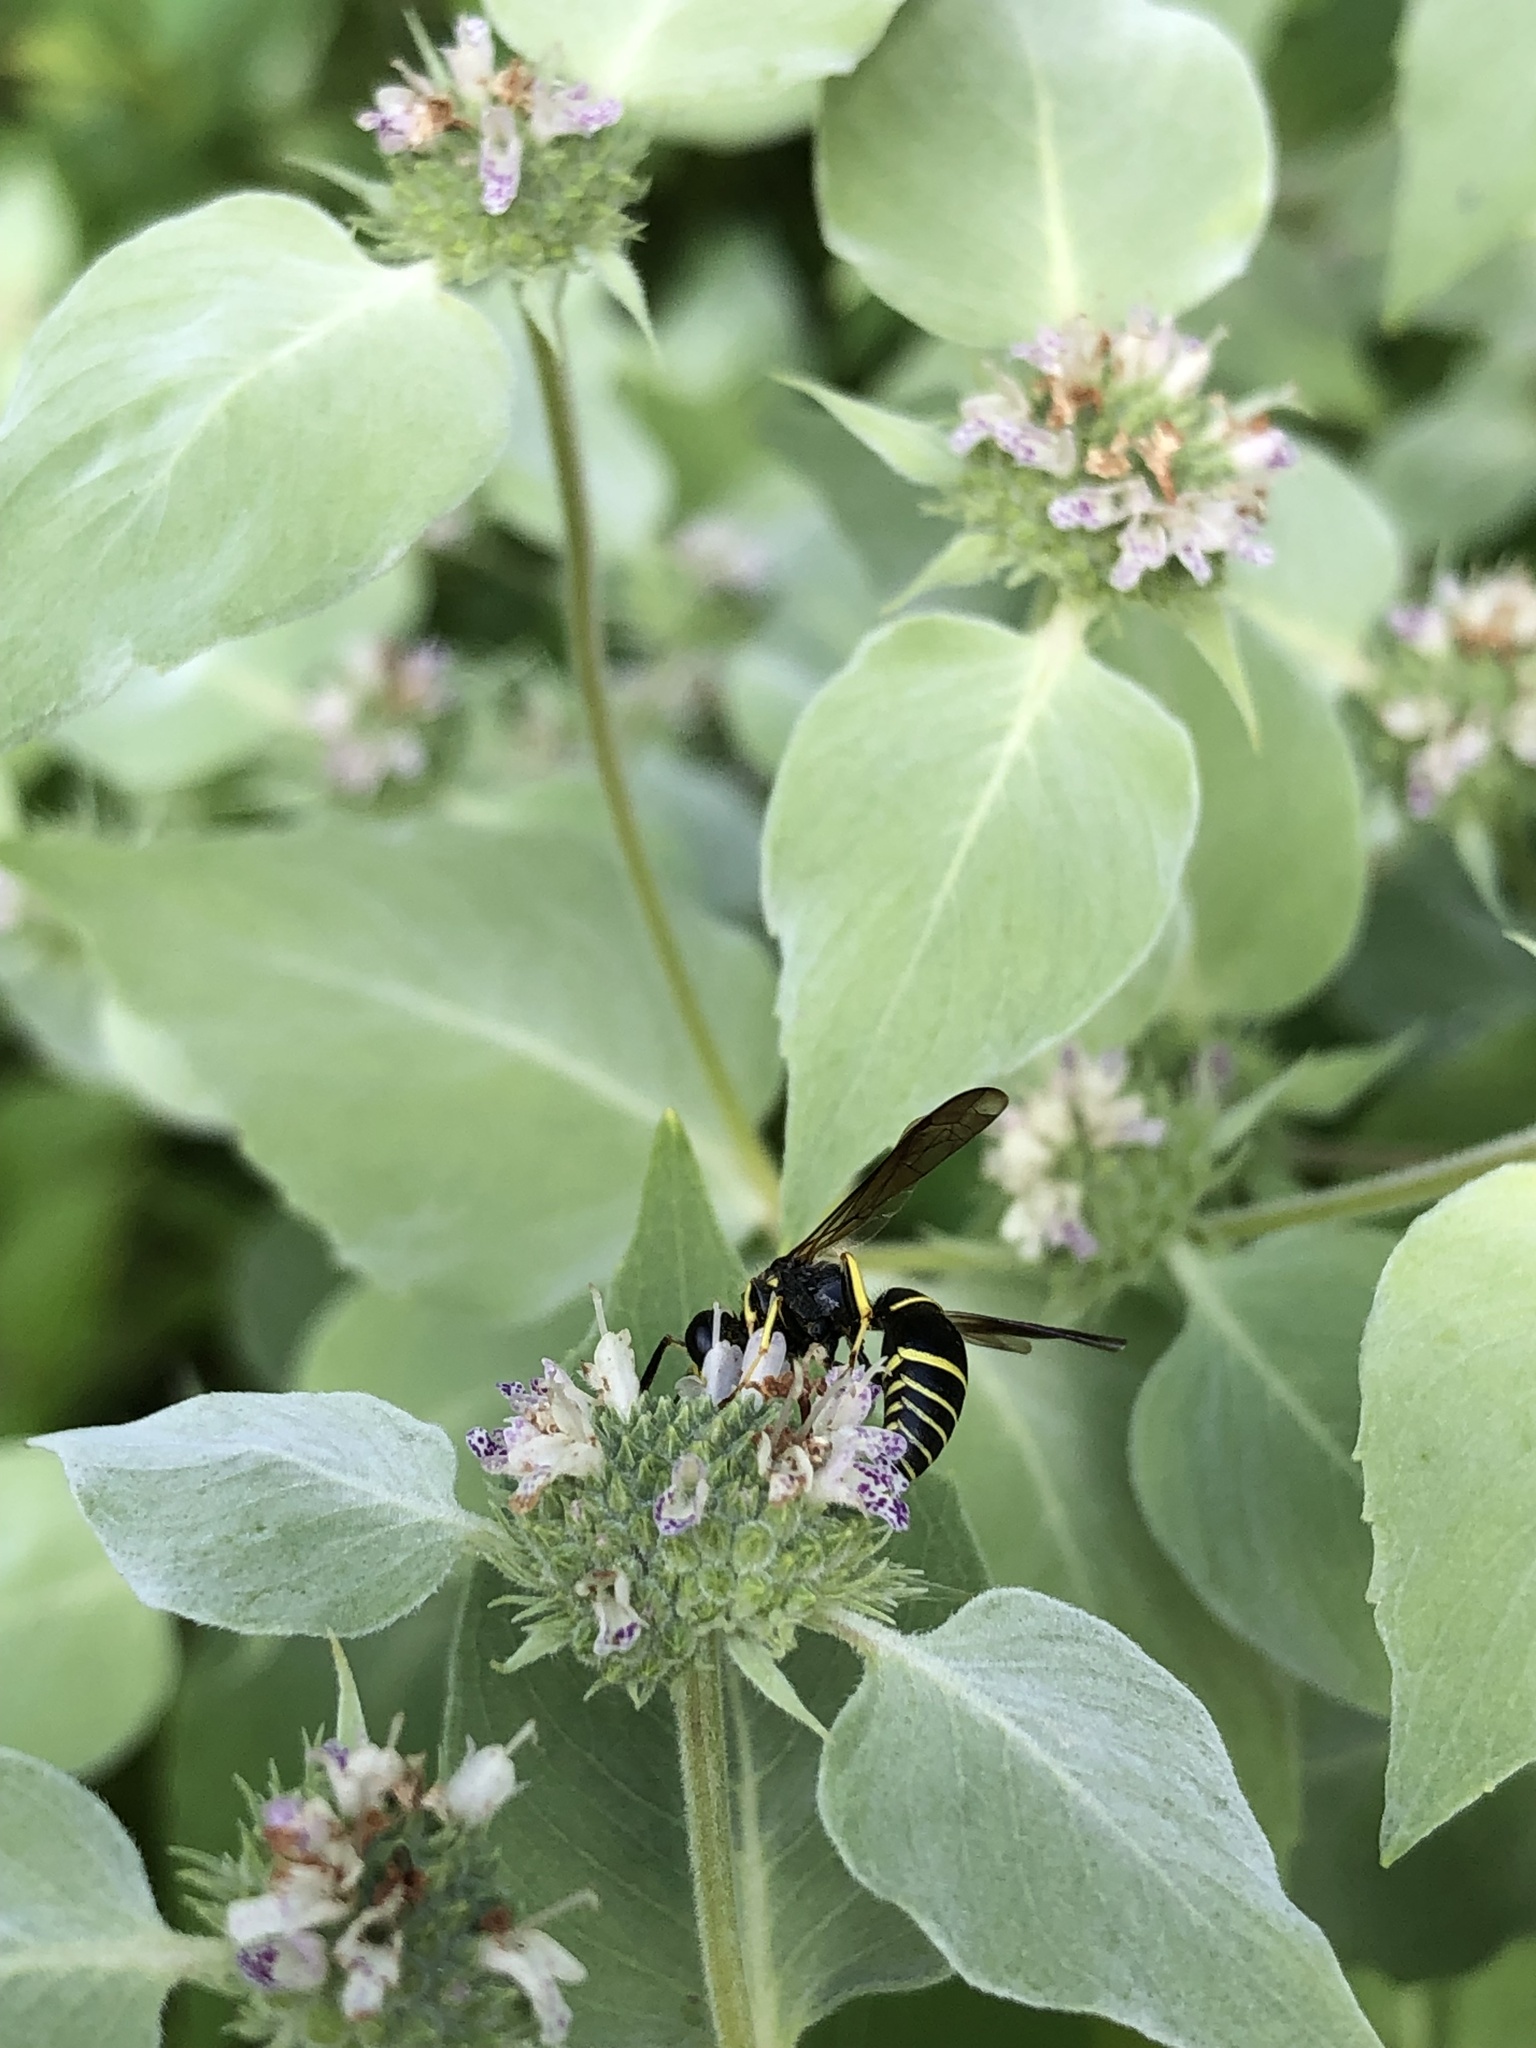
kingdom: Animalia
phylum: Arthropoda
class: Insecta
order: Hymenoptera
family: Vespidae
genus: Ancistrocerus
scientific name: Ancistrocerus
